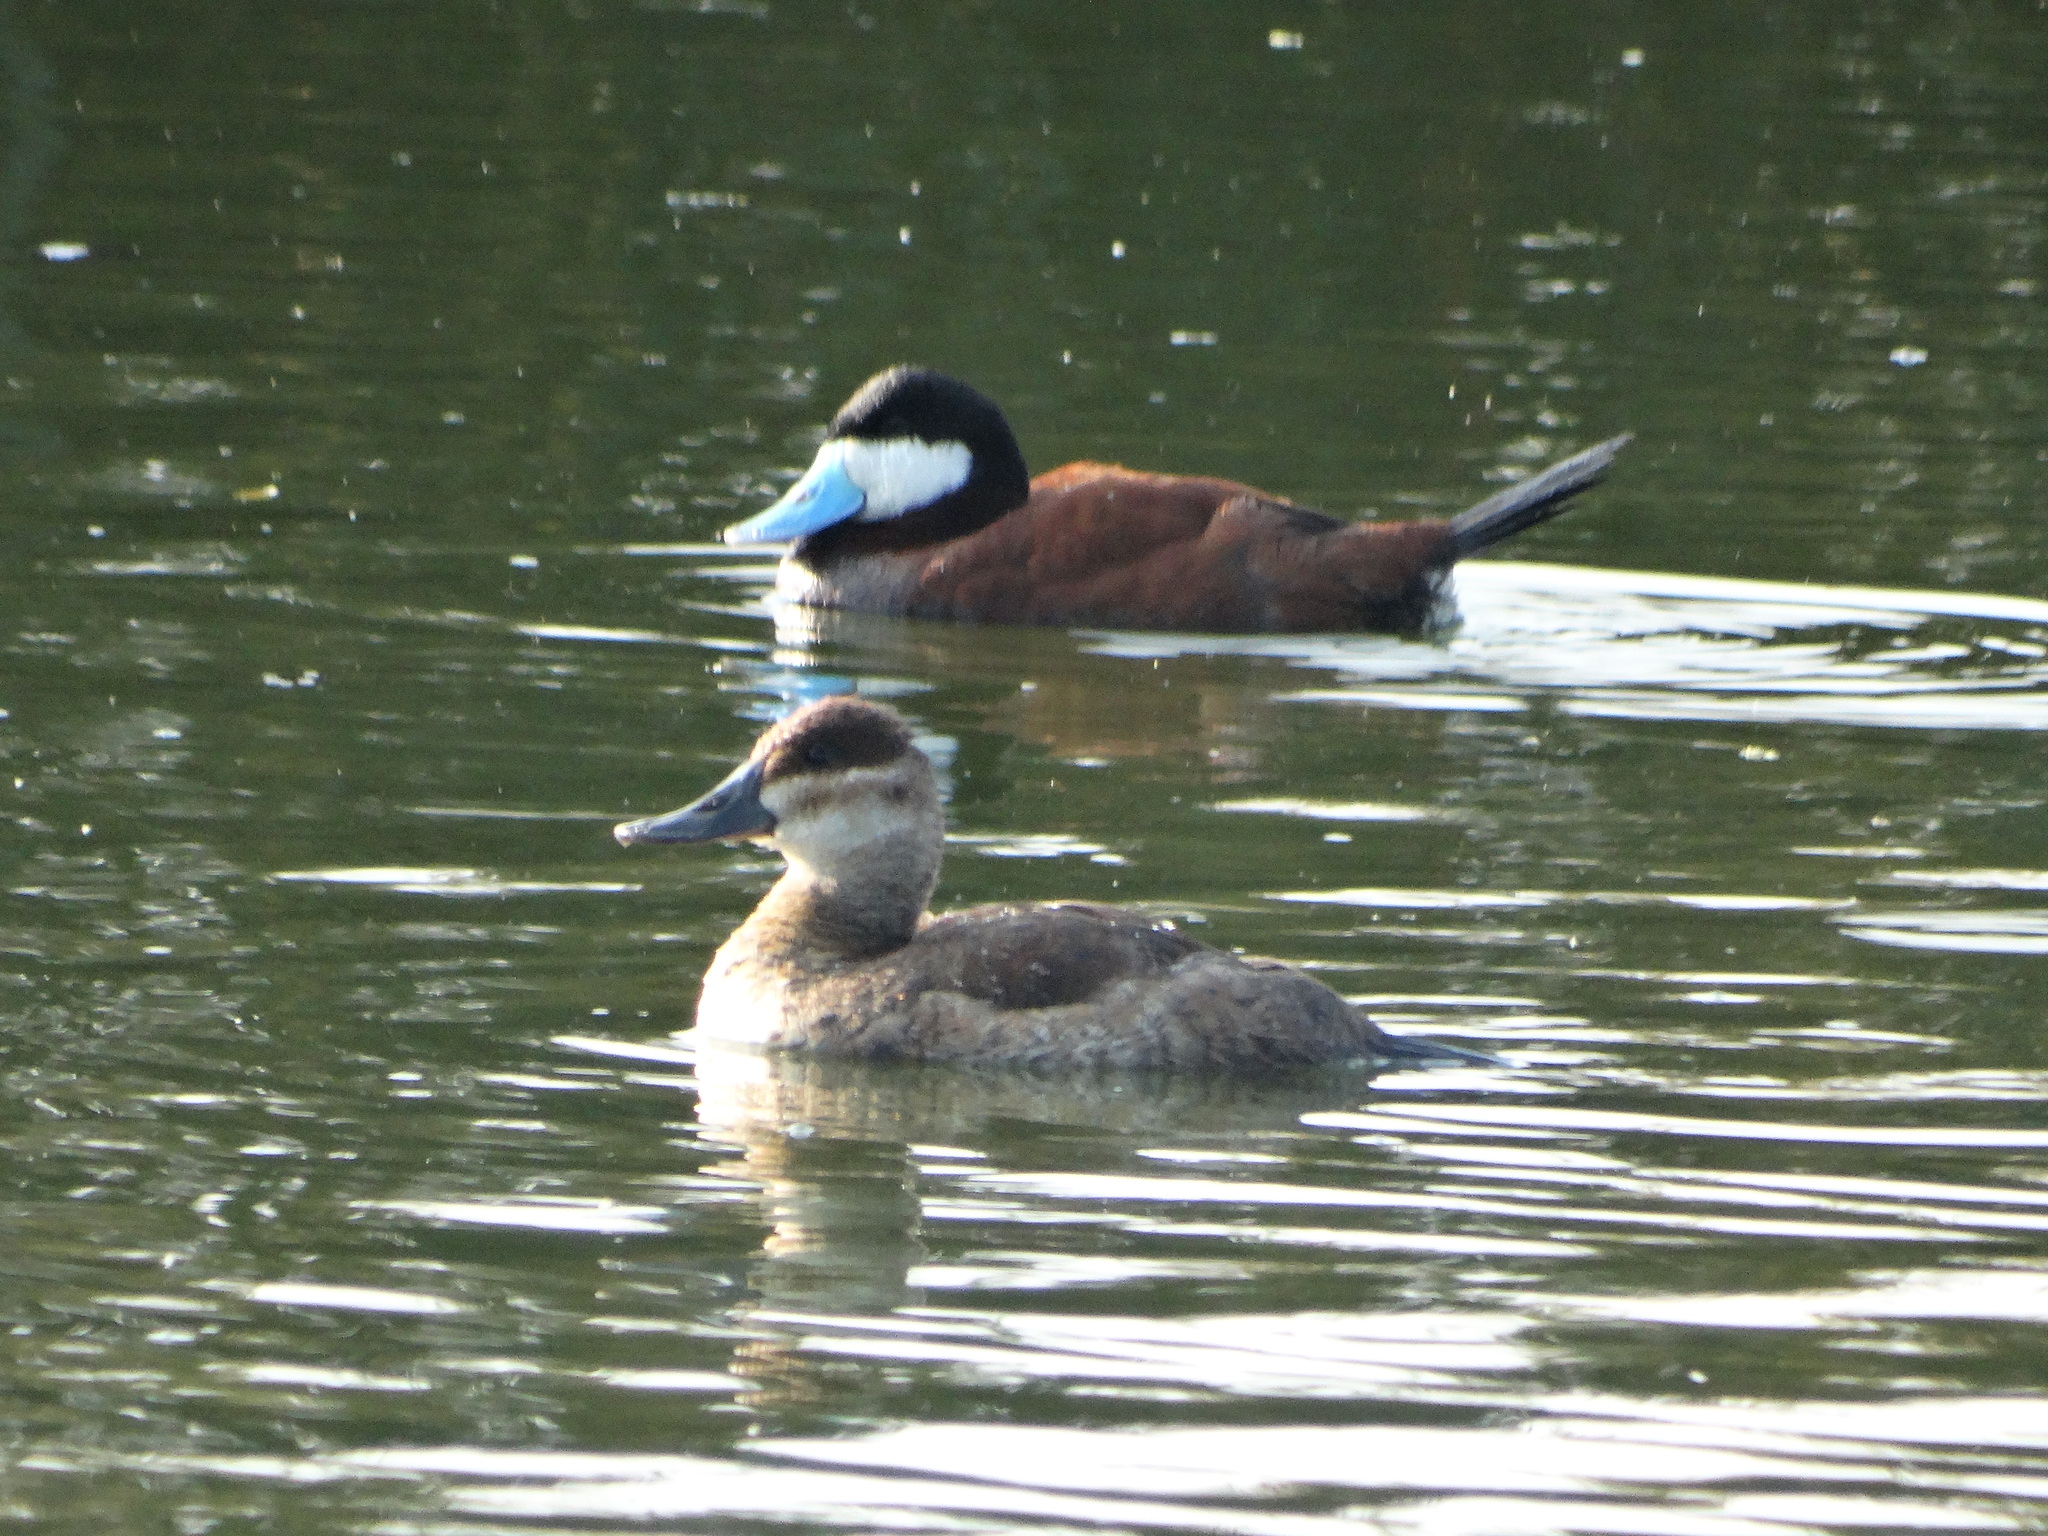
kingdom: Animalia
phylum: Chordata
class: Aves
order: Anseriformes
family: Anatidae
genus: Oxyura
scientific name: Oxyura jamaicensis
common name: Ruddy duck
